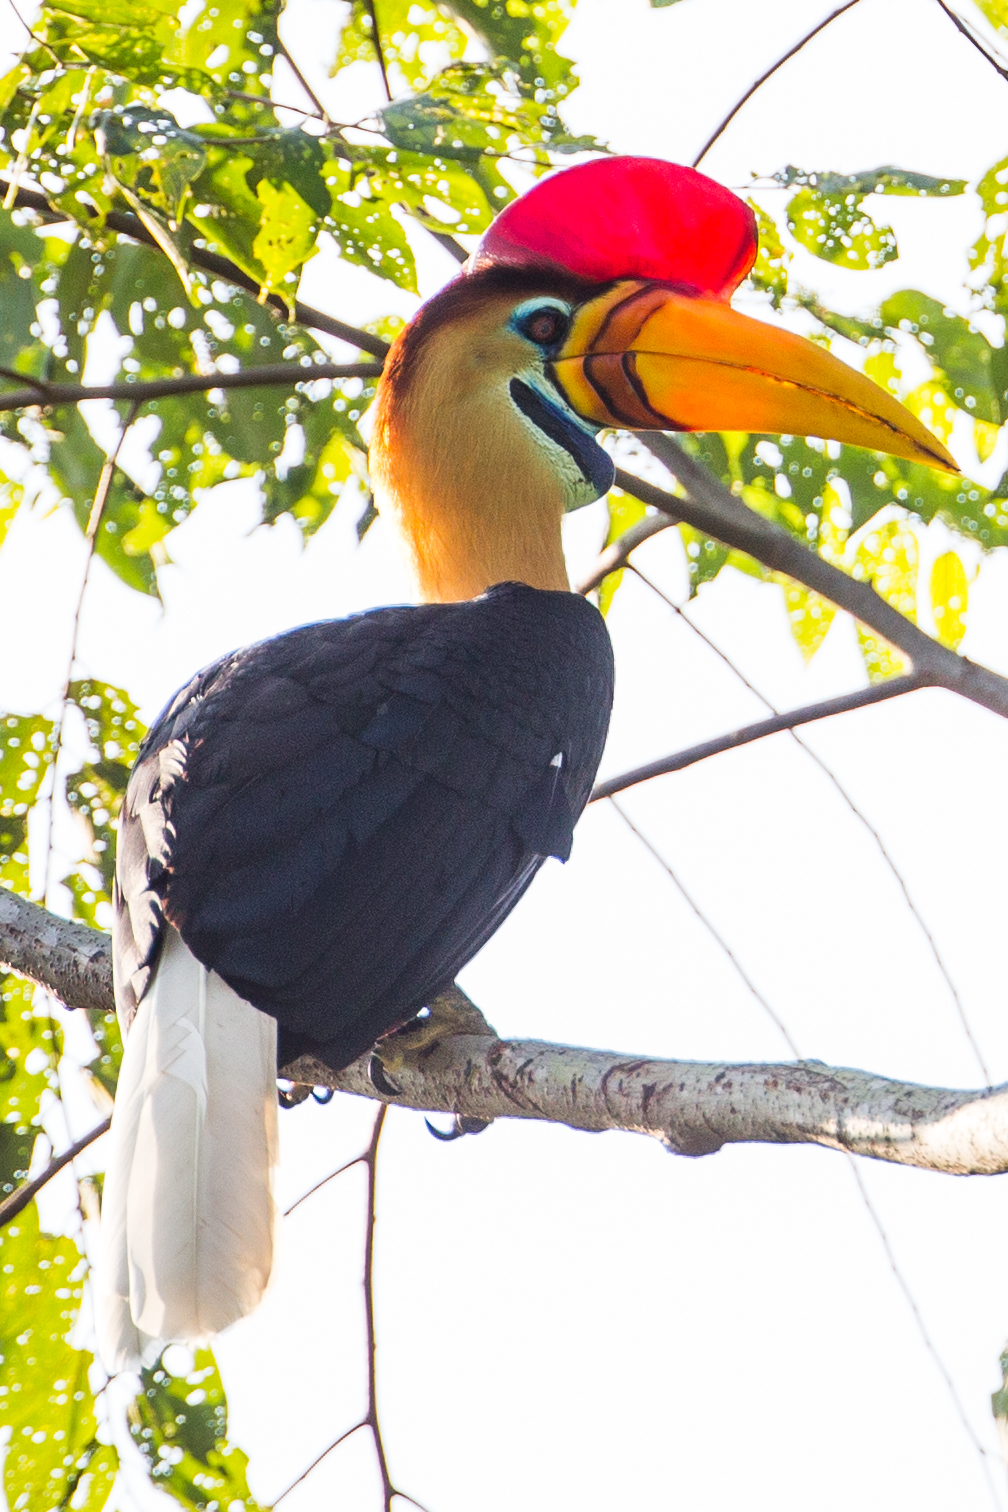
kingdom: Animalia
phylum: Chordata
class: Aves
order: Bucerotiformes
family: Bucerotidae
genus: Rhyticeros
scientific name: Rhyticeros cassidix
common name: Knobbed hornbill
